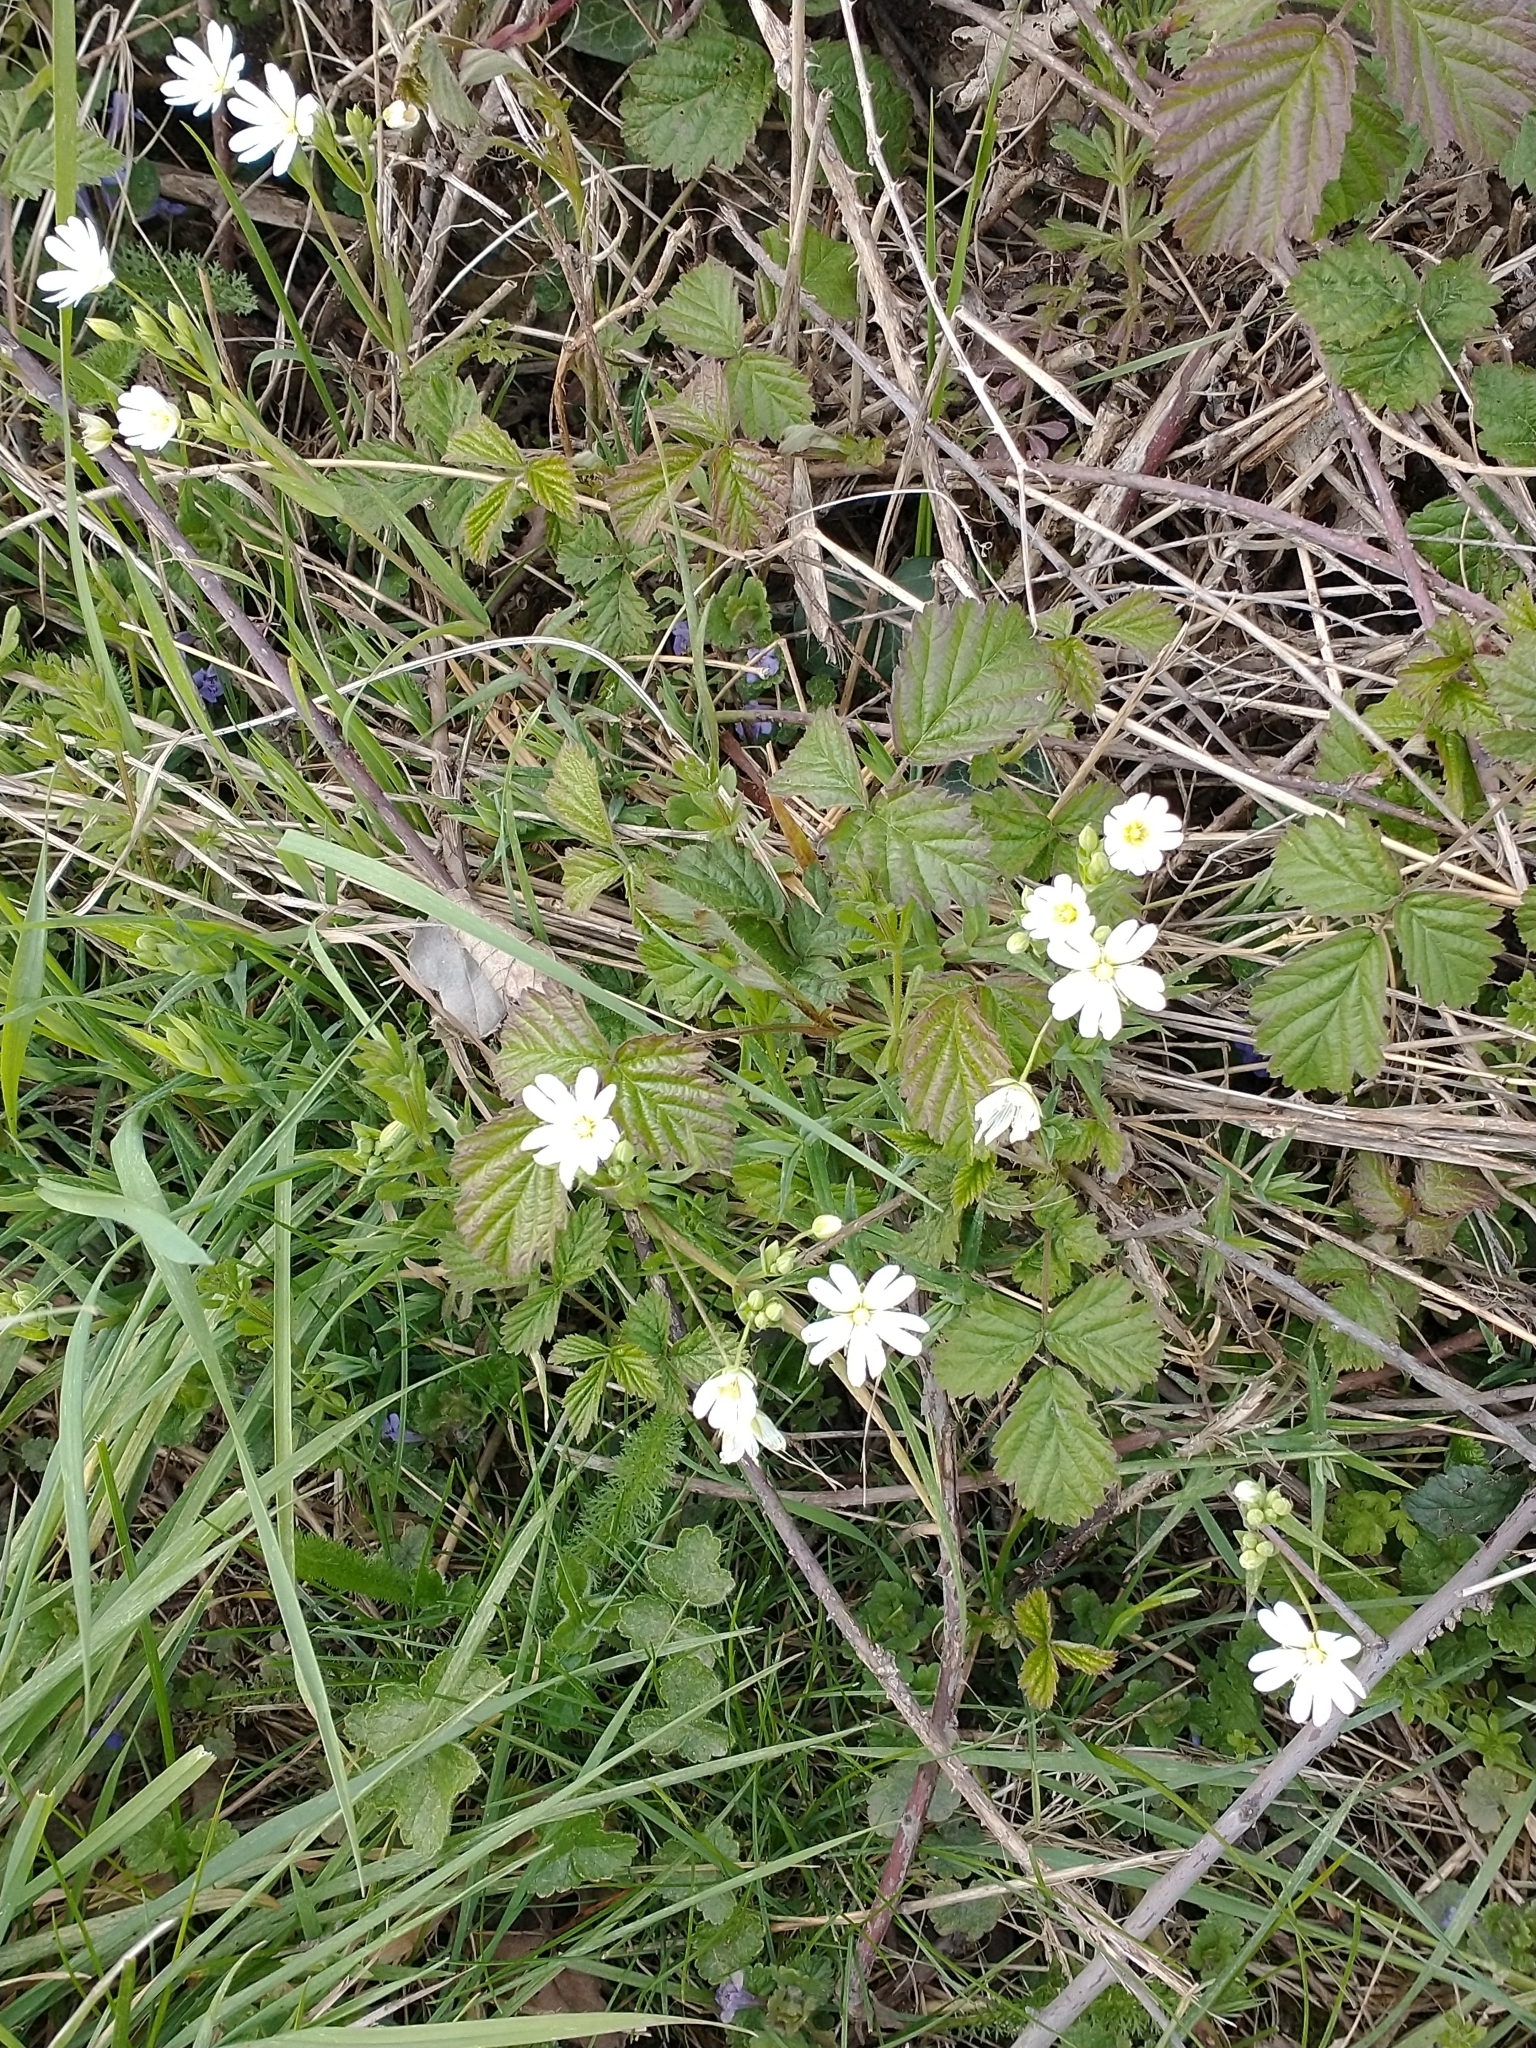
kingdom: Plantae
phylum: Tracheophyta
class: Magnoliopsida
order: Caryophyllales
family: Caryophyllaceae
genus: Rabelera
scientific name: Rabelera holostea
